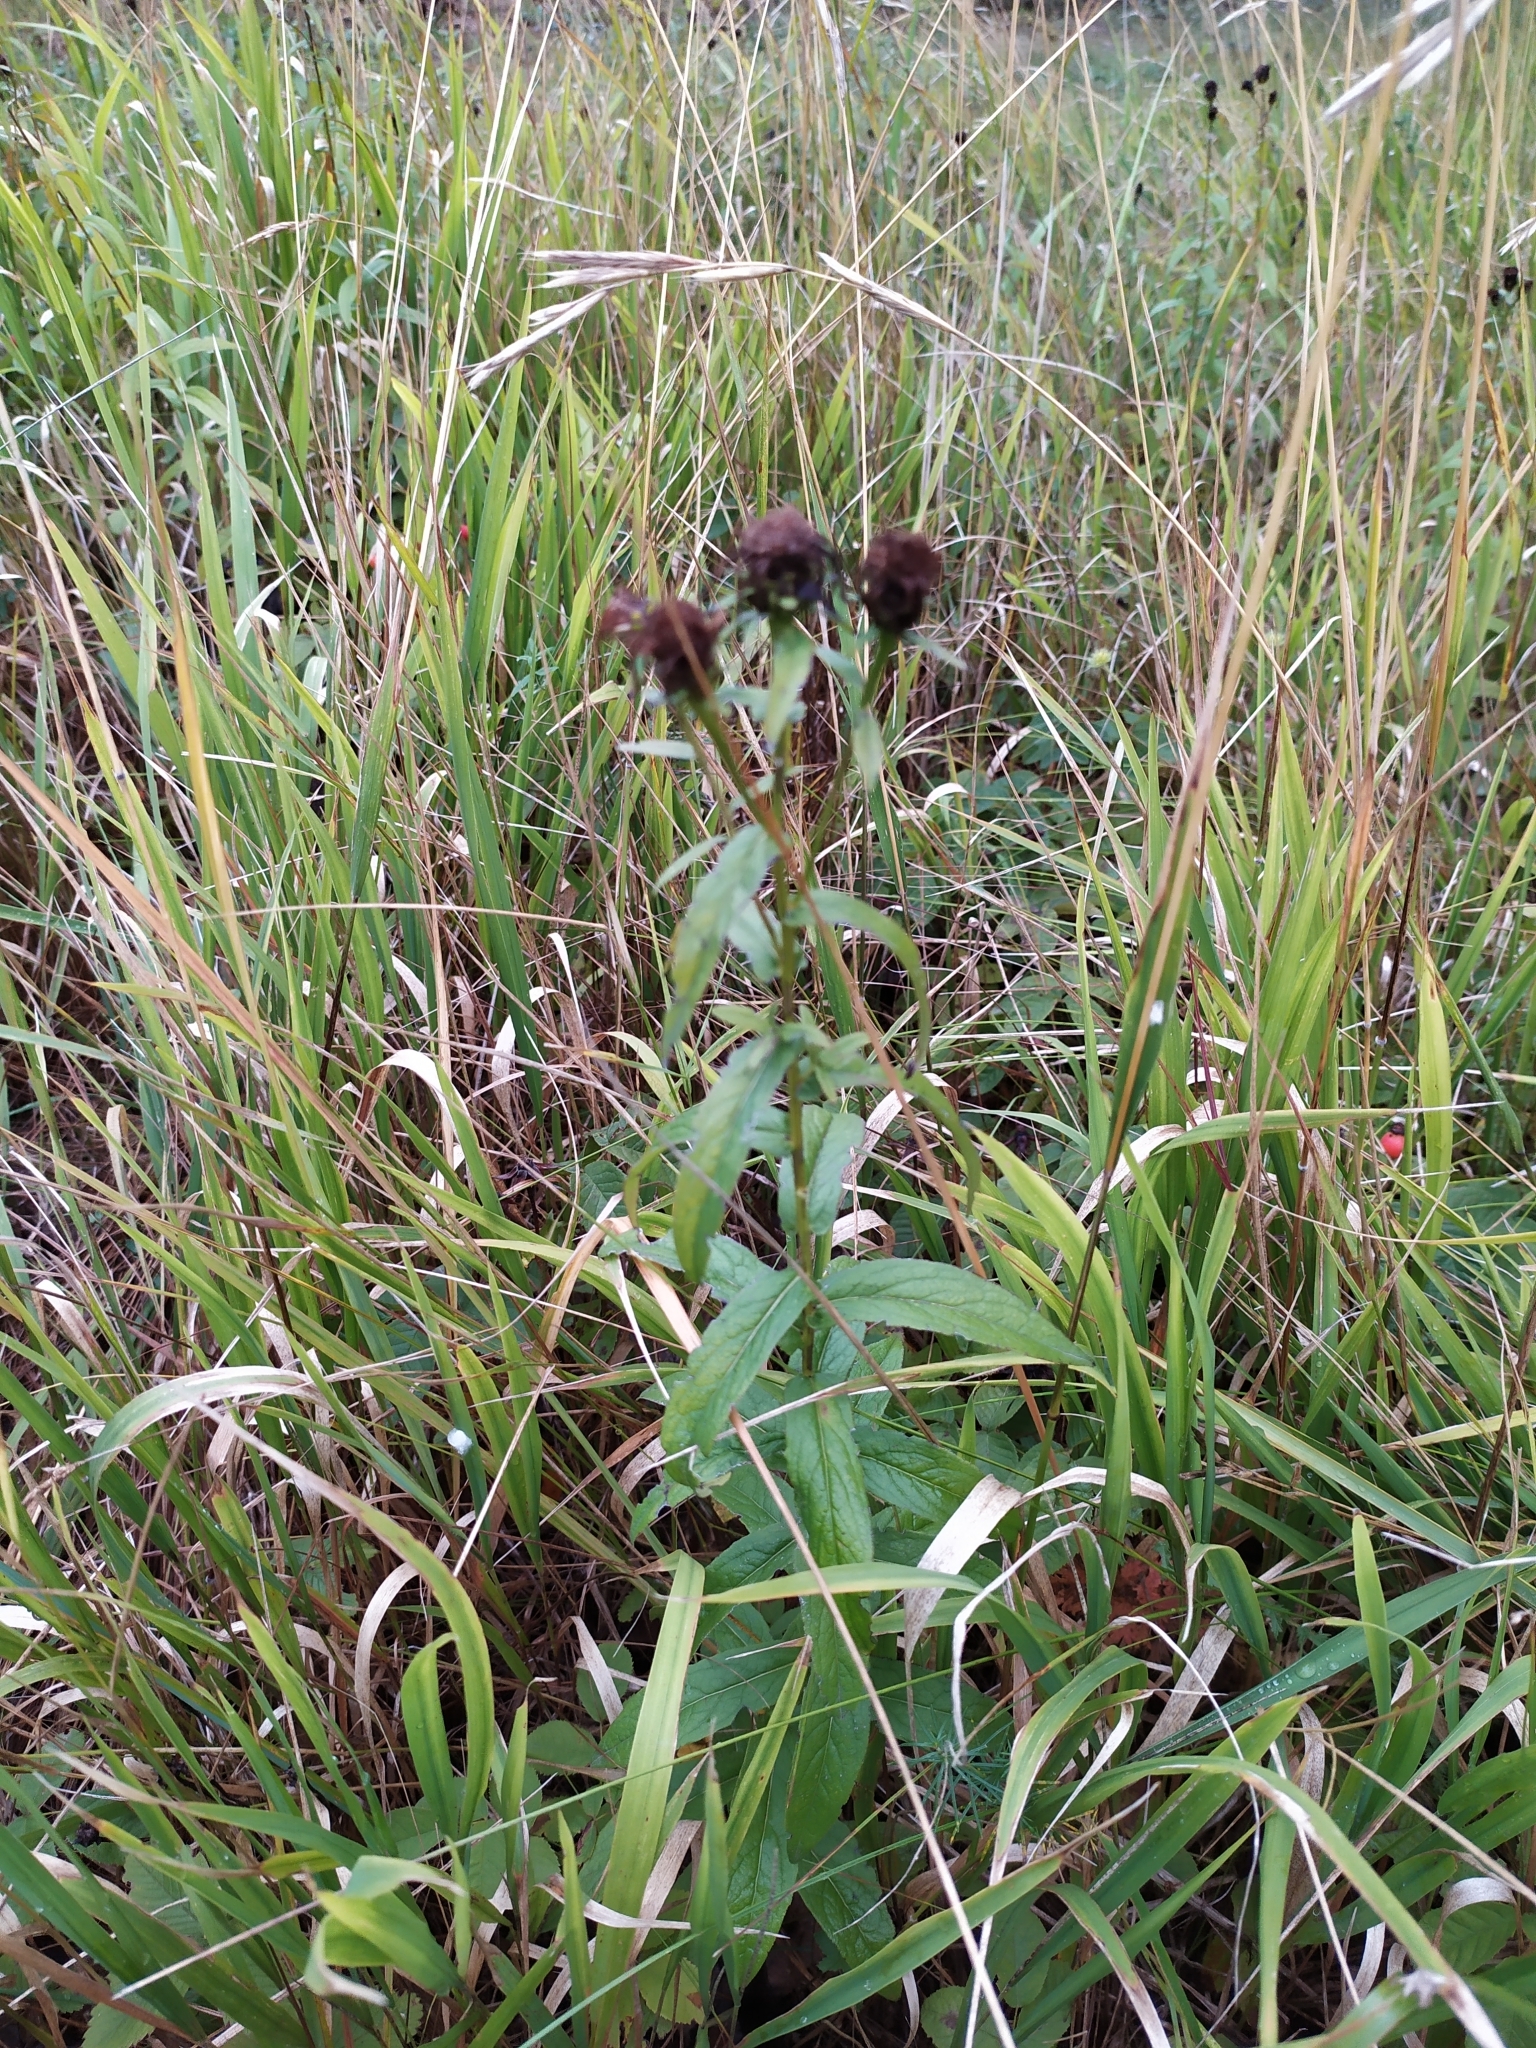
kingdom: Plantae
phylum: Tracheophyta
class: Magnoliopsida
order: Asterales
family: Asteraceae
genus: Pentanema
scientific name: Pentanema salicinum
